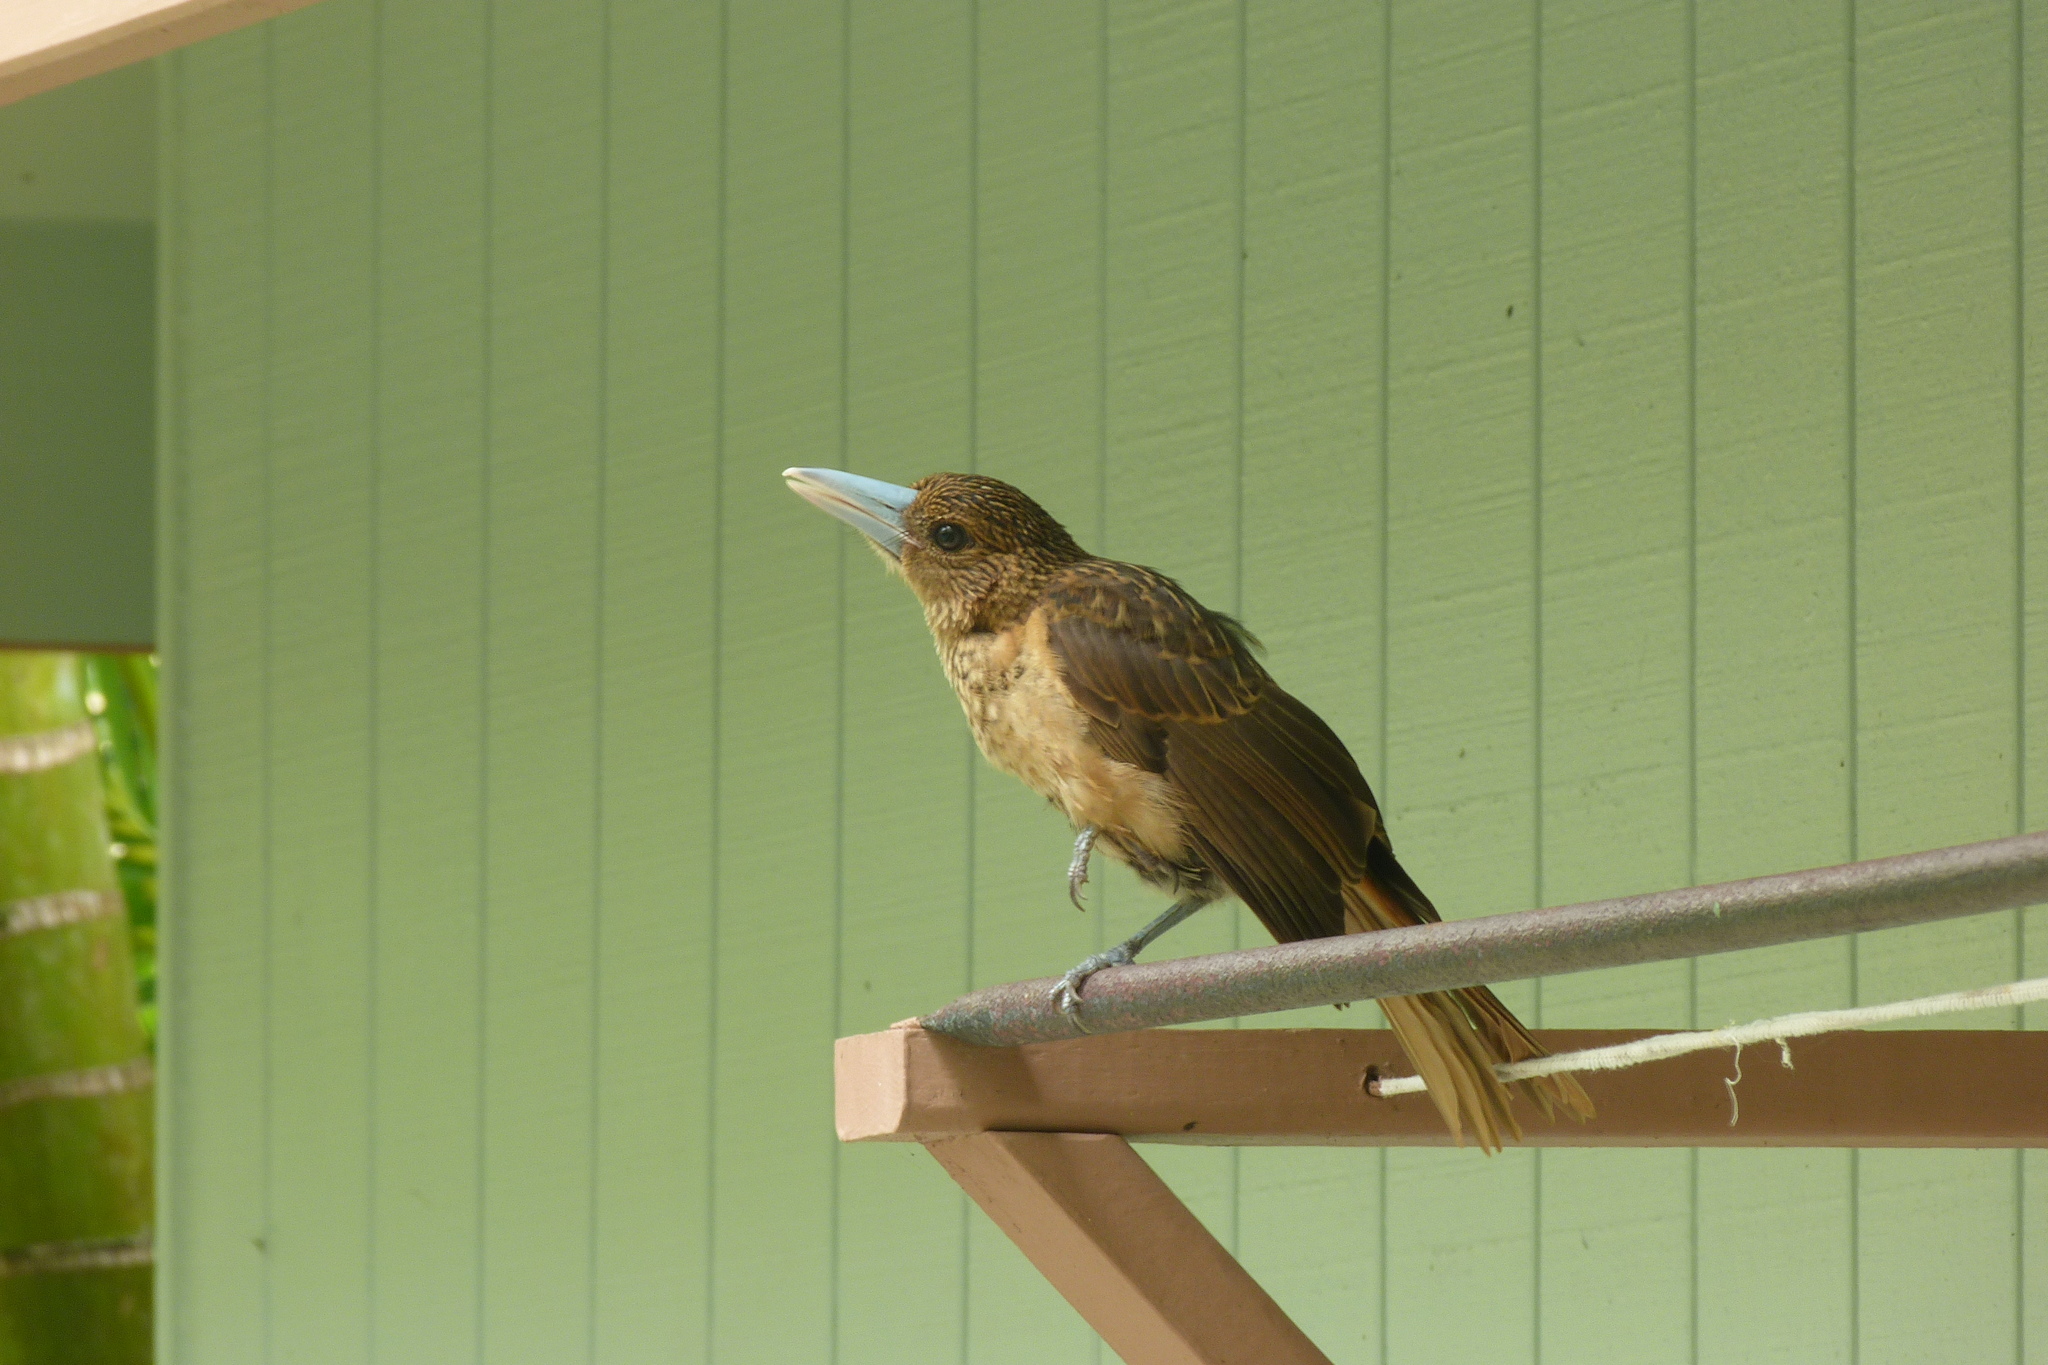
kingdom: Animalia
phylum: Chordata
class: Aves
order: Passeriformes
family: Artamidae
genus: Melloria
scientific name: Melloria quoyi
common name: Black butcherbird
